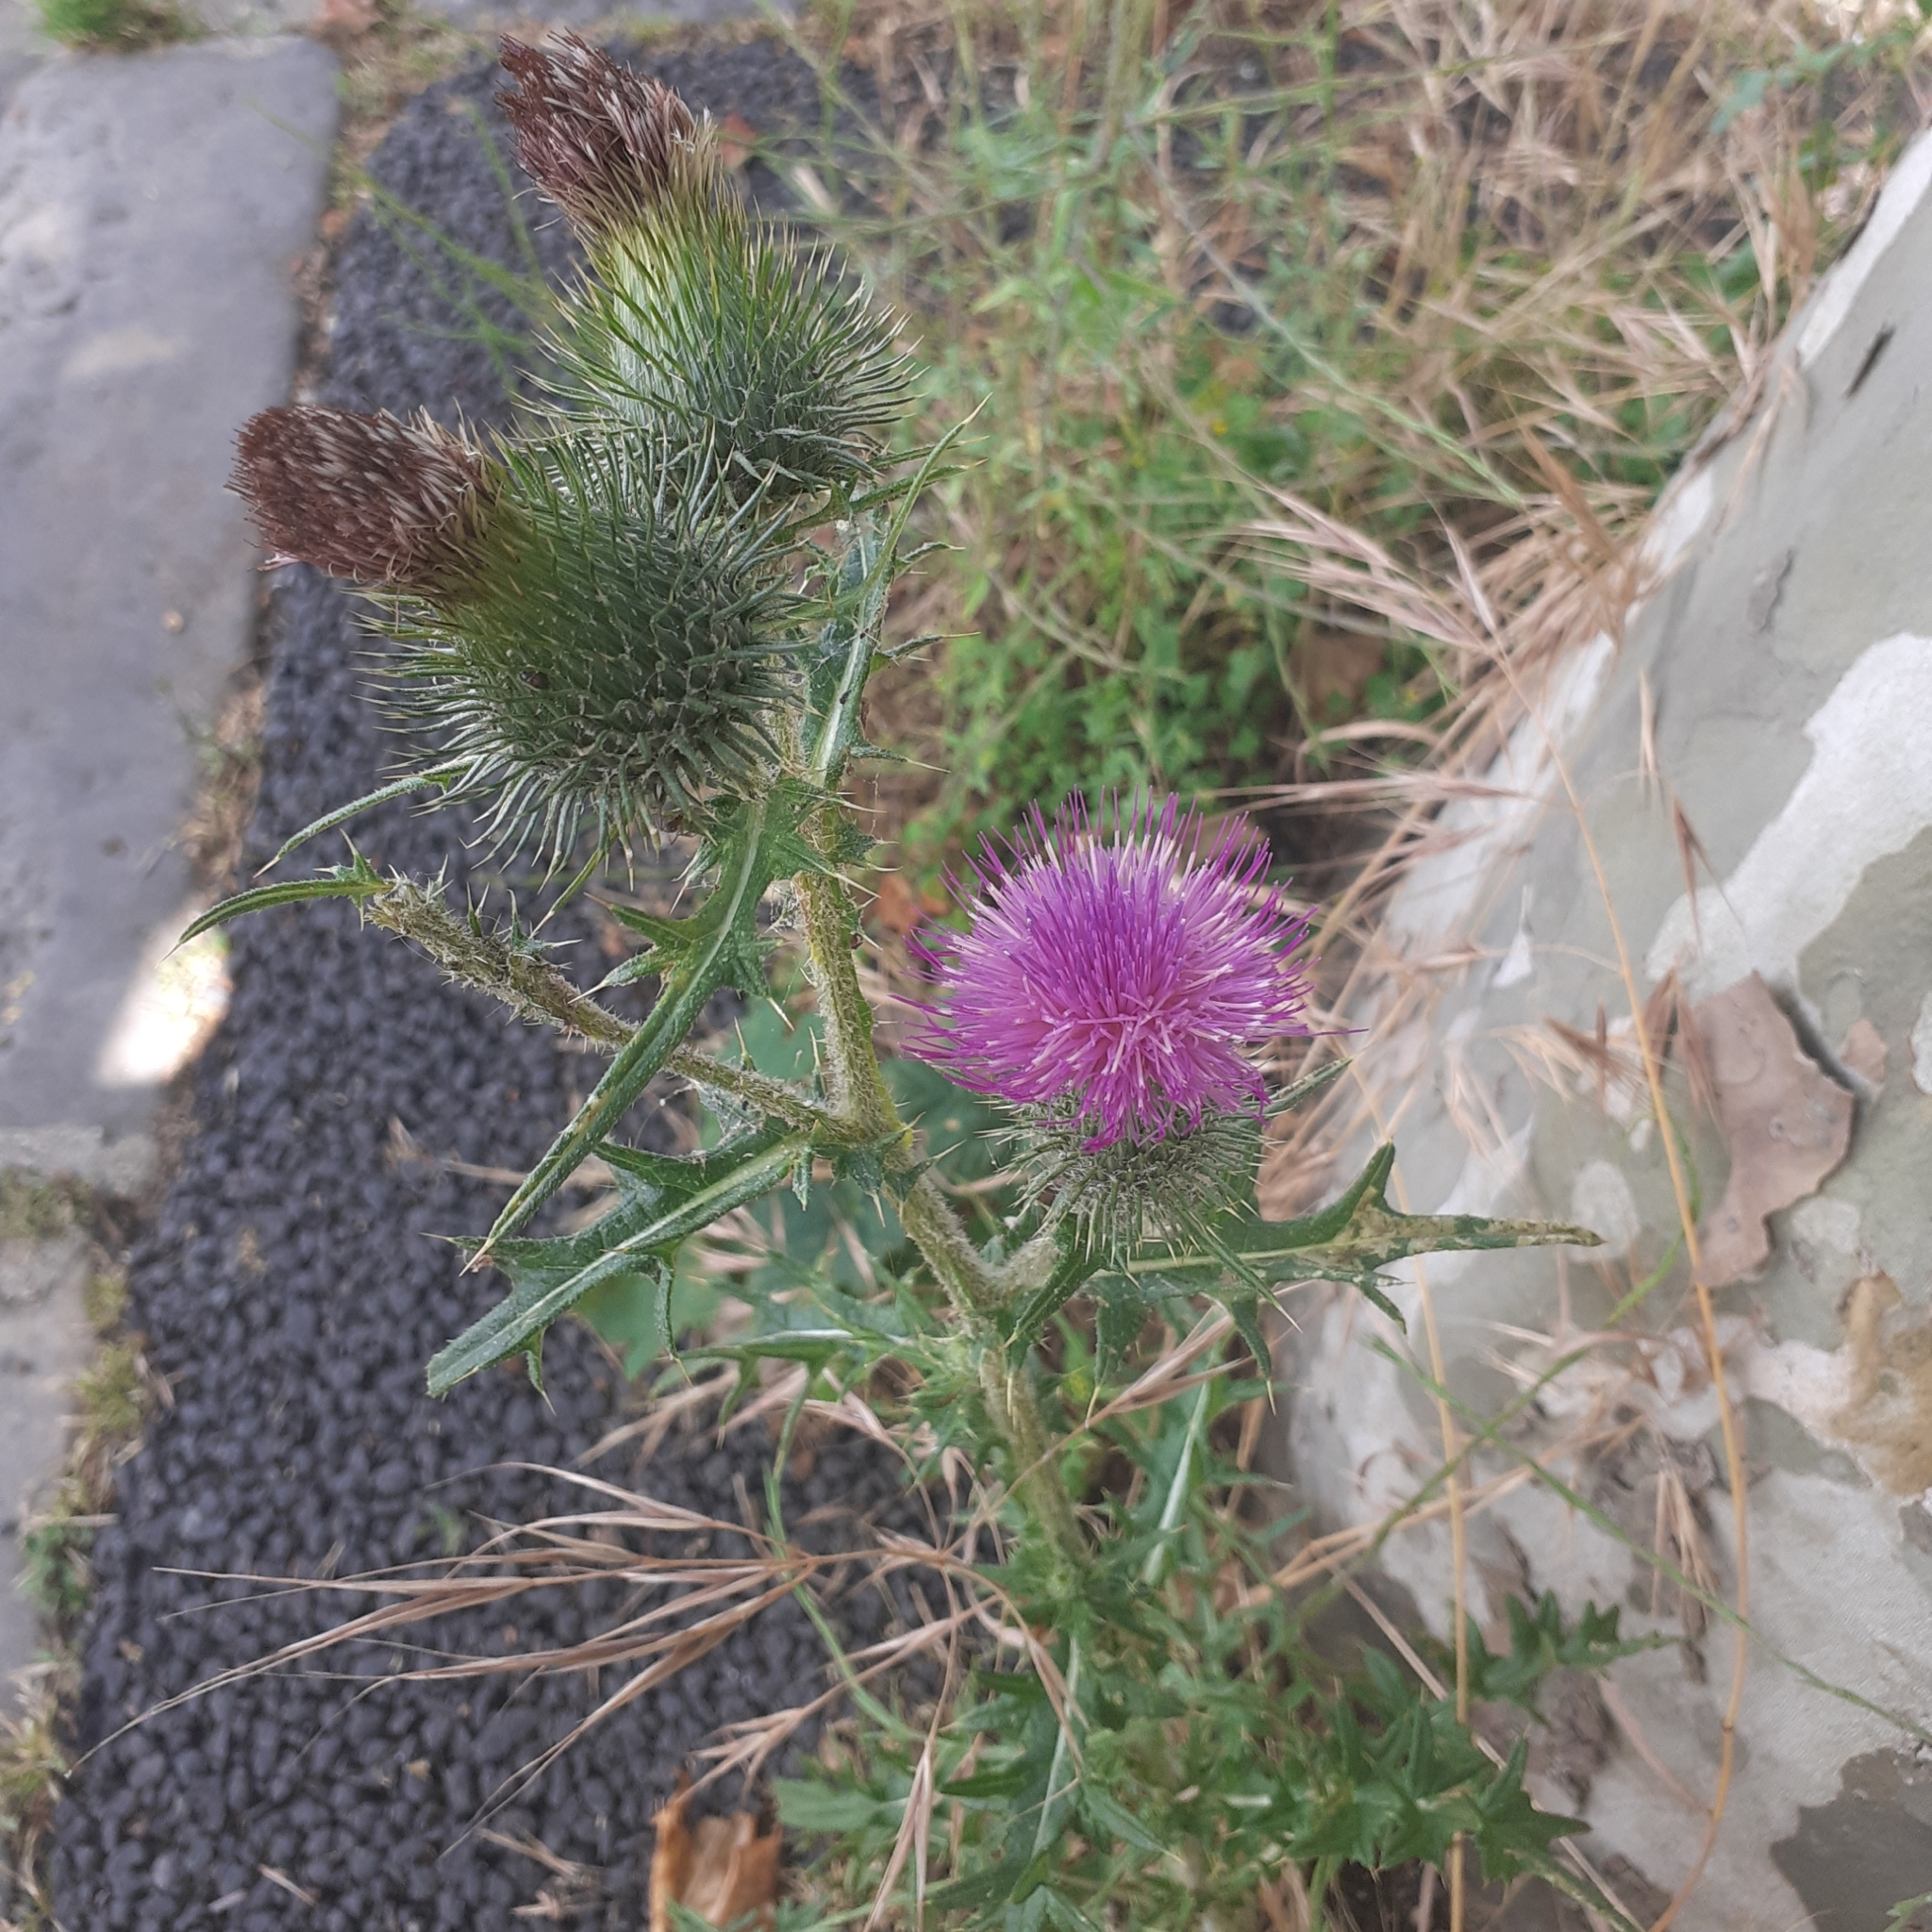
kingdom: Plantae
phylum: Tracheophyta
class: Magnoliopsida
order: Asterales
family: Asteraceae
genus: Cirsium
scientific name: Cirsium vulgare
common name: Bull thistle
